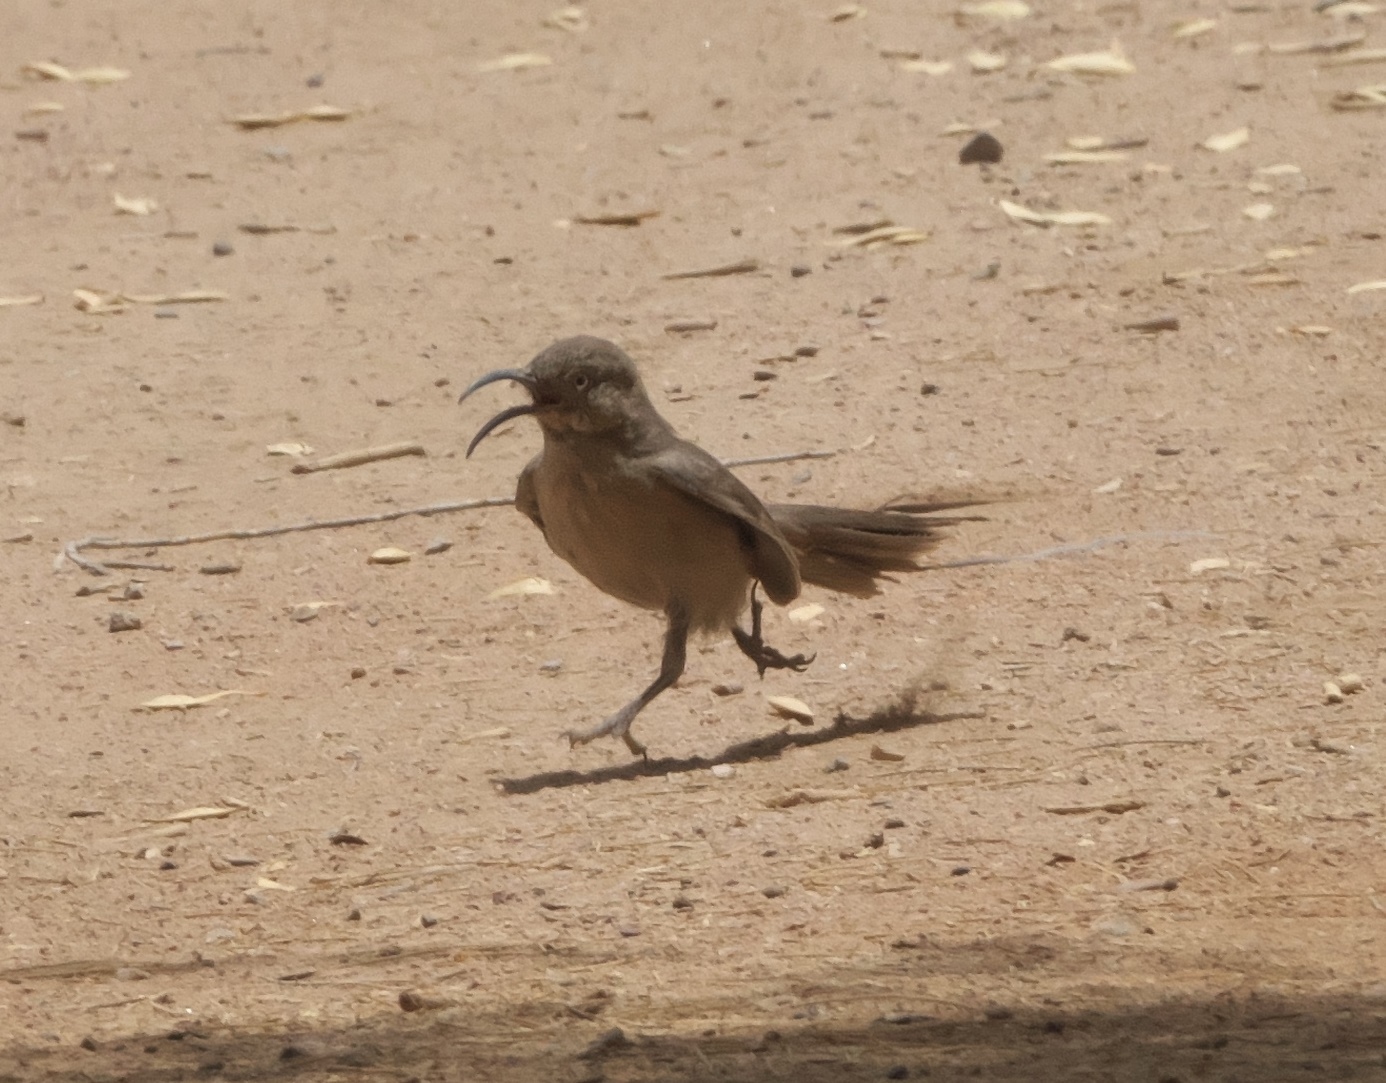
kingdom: Animalia
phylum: Chordata
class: Aves
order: Passeriformes
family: Mimidae
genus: Toxostoma
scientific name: Toxostoma crissale
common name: Crissal thrasher
